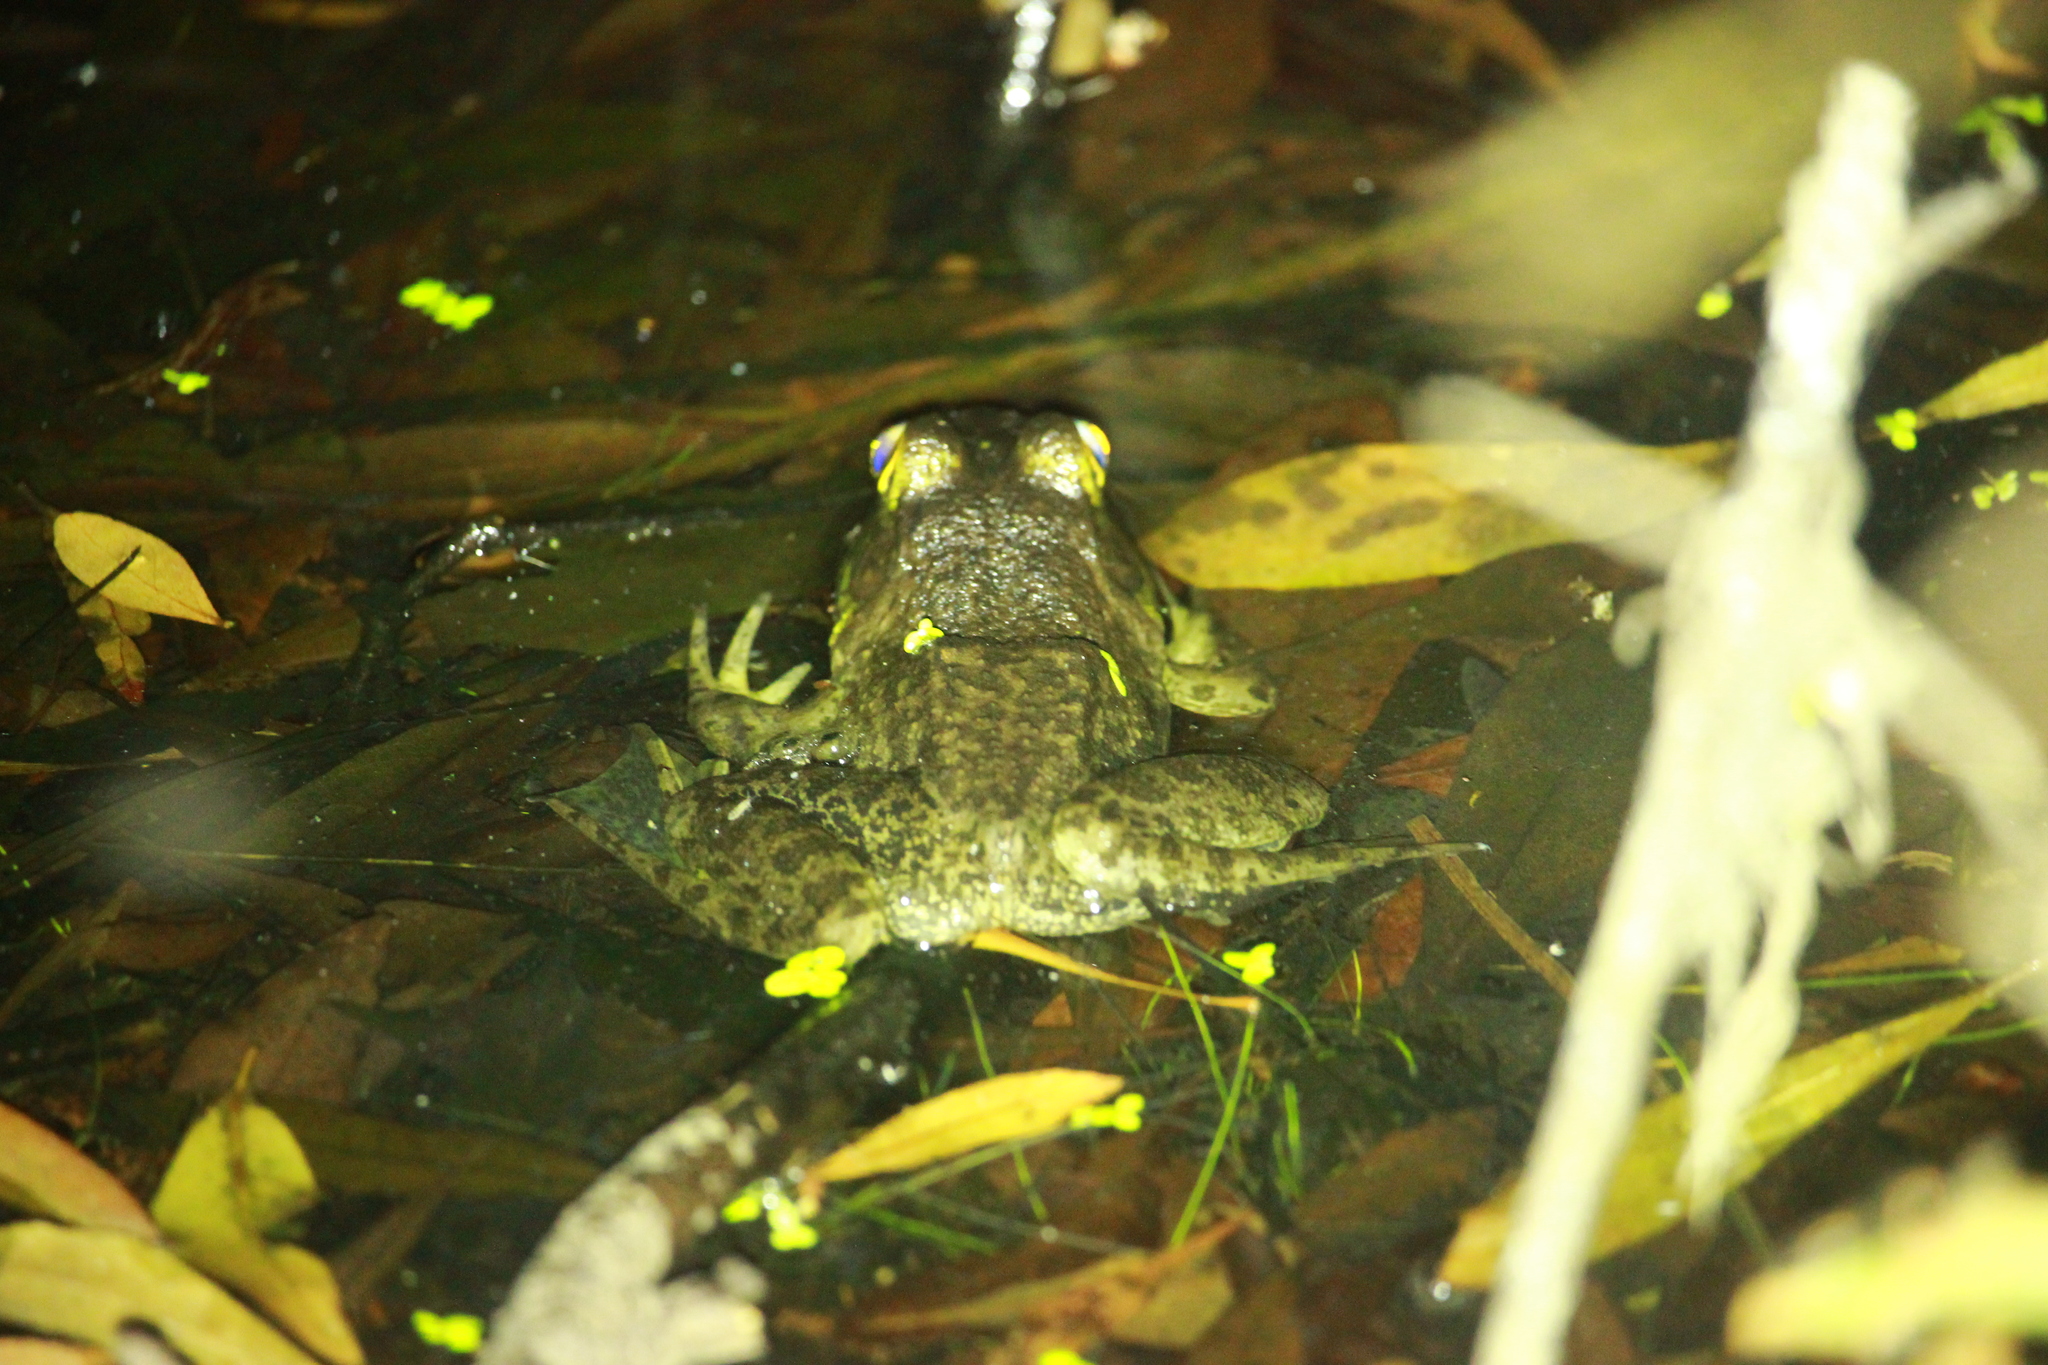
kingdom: Animalia
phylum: Chordata
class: Amphibia
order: Anura
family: Ranidae
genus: Lithobates
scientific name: Lithobates catesbeianus
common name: American bullfrog
